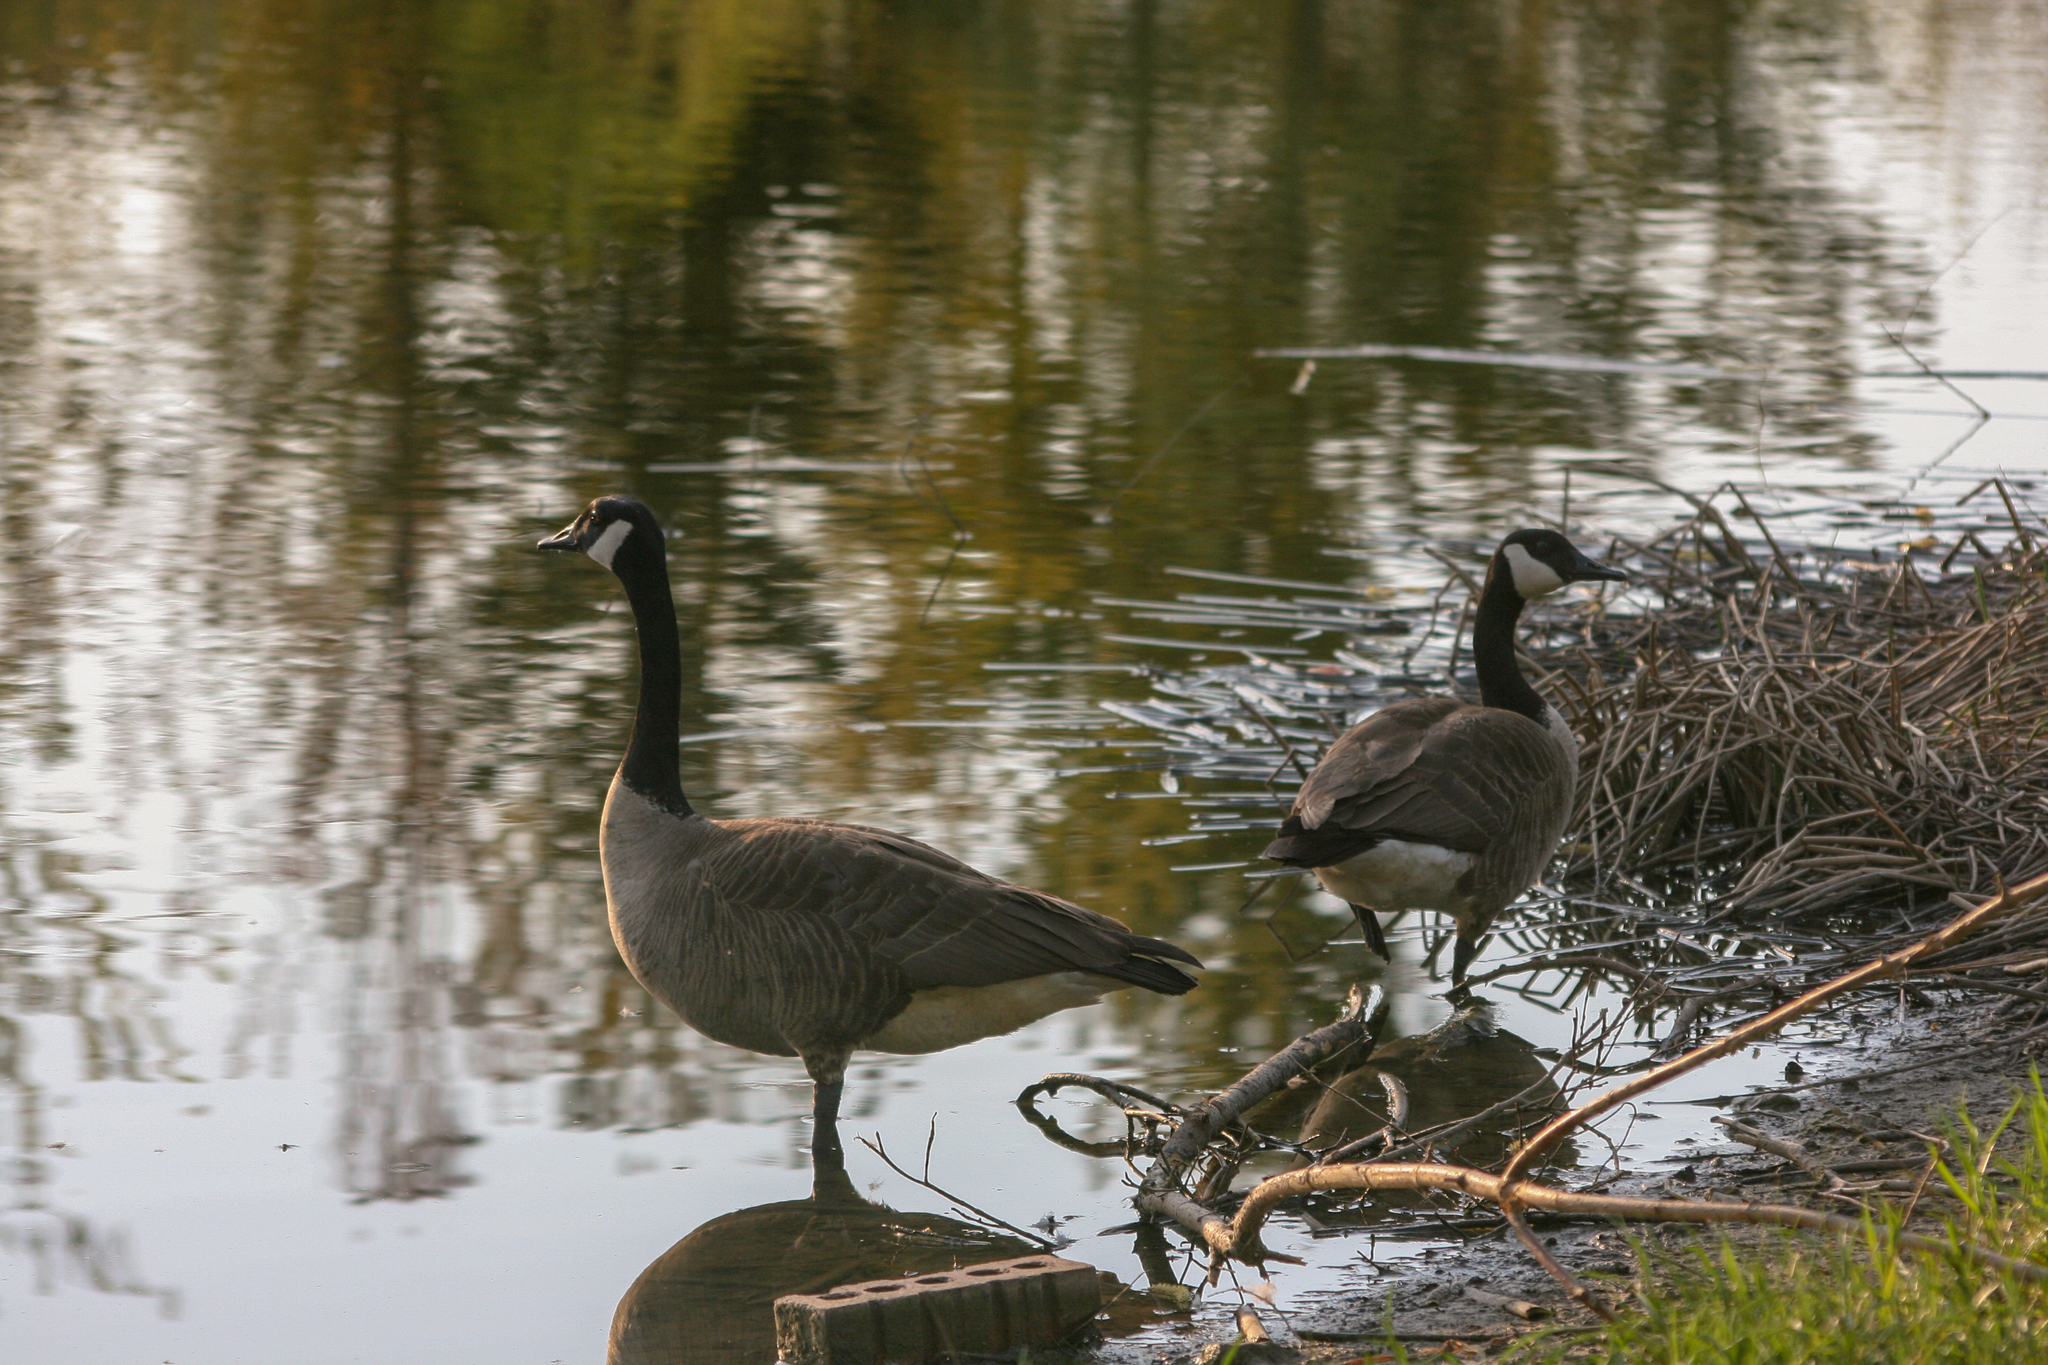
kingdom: Animalia
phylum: Chordata
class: Aves
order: Anseriformes
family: Anatidae
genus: Branta
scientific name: Branta canadensis
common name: Canada goose
